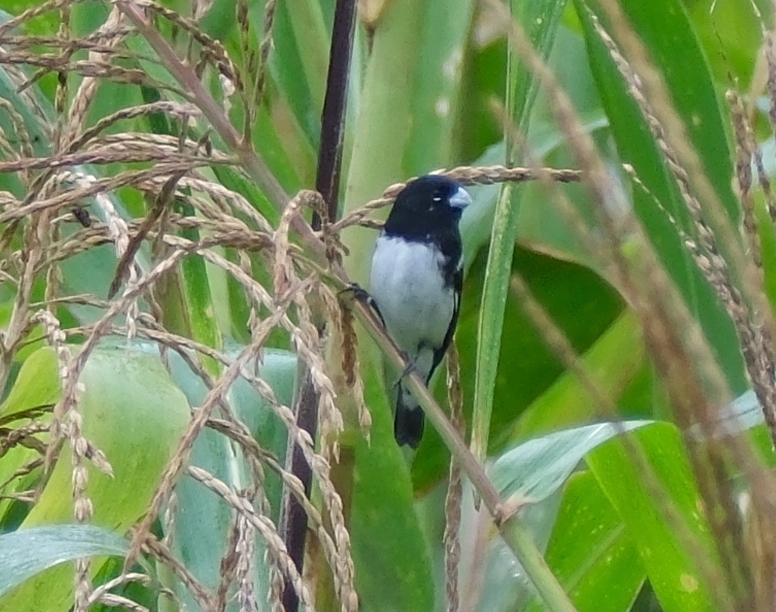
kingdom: Animalia
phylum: Chordata
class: Aves
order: Passeriformes
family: Thraupidae
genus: Sporophila
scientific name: Sporophila luctuosa
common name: Black-and-white seedeater
